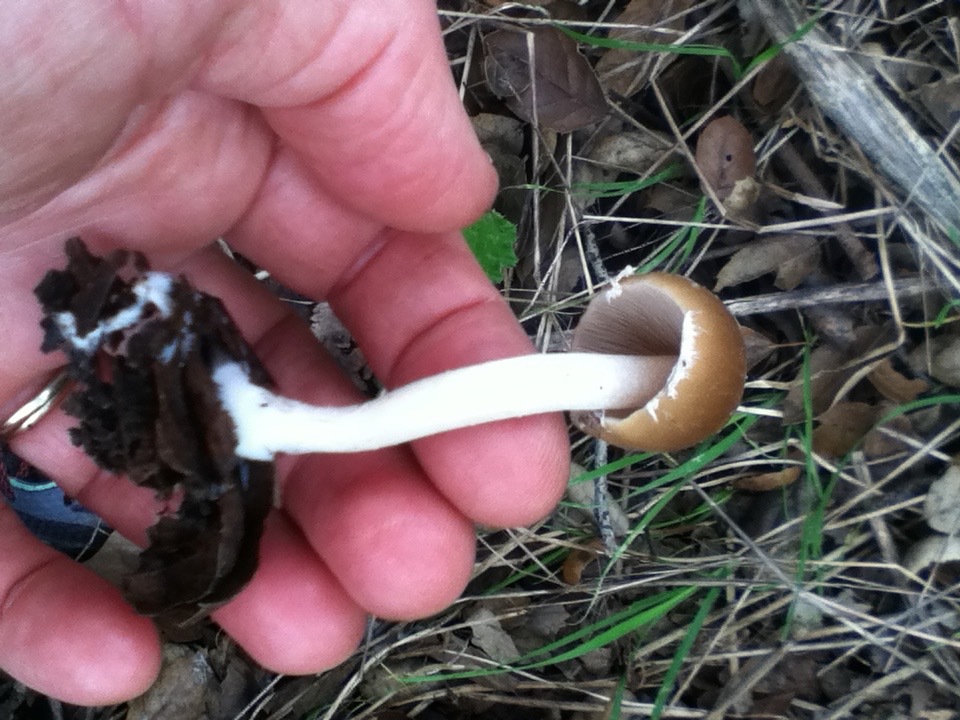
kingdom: Fungi
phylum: Basidiomycota
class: Agaricomycetes
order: Agaricales
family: Psathyrellaceae
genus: Candolleomyces
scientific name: Candolleomyces candolleanus
